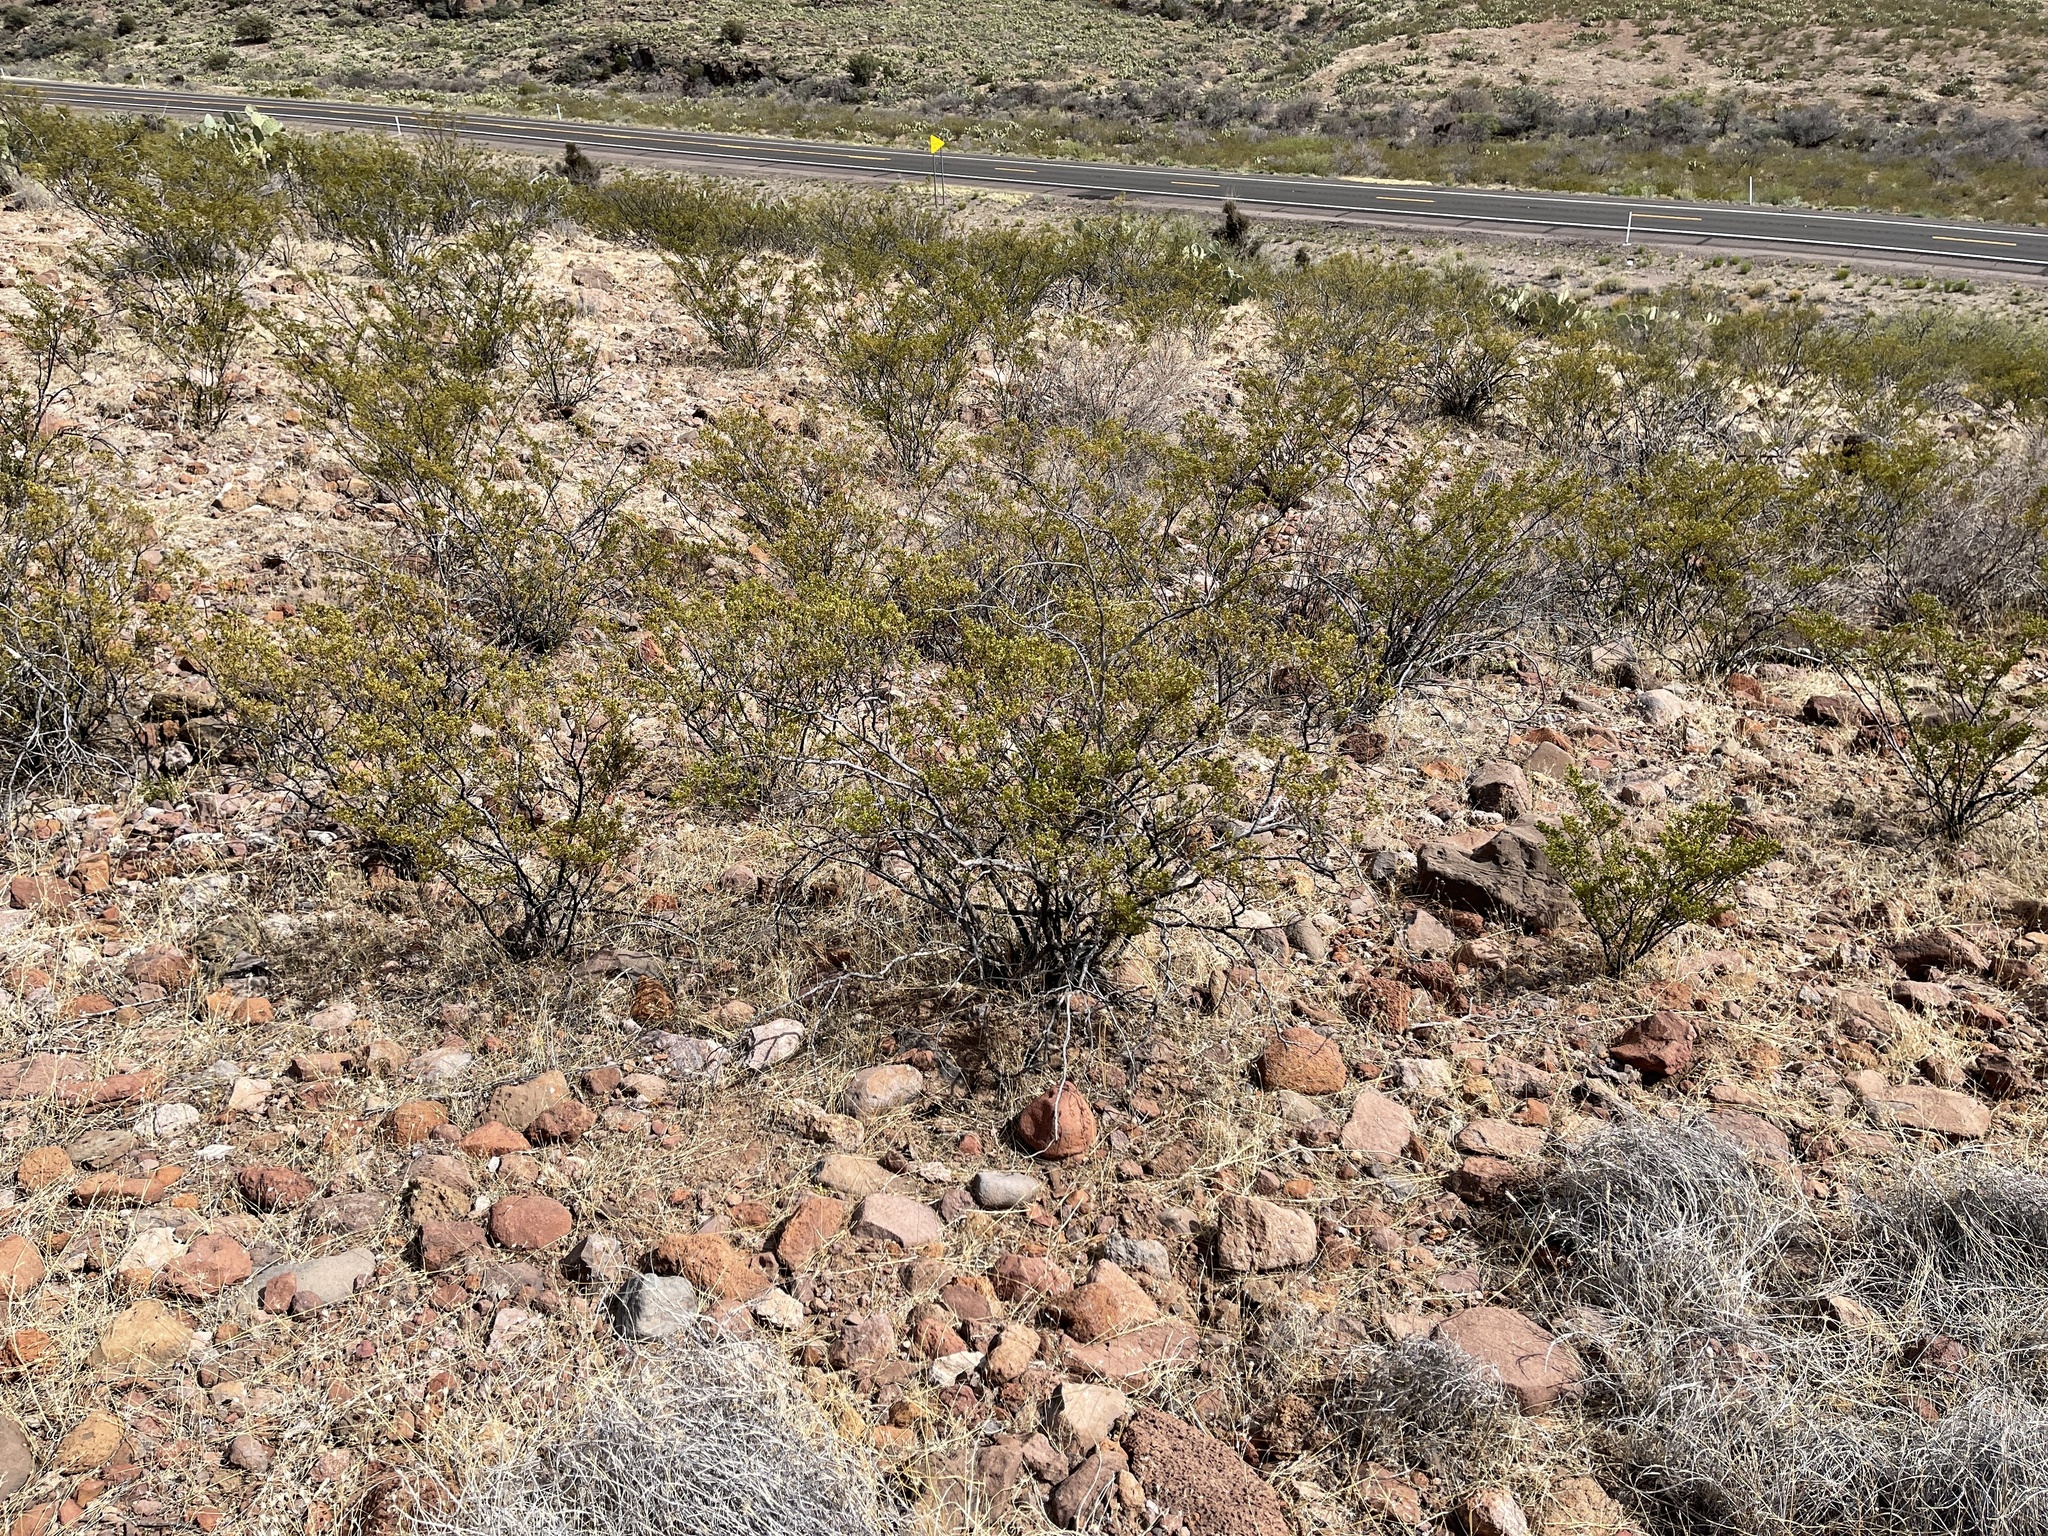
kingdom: Plantae
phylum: Tracheophyta
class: Magnoliopsida
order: Zygophyllales
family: Zygophyllaceae
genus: Larrea
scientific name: Larrea tridentata
